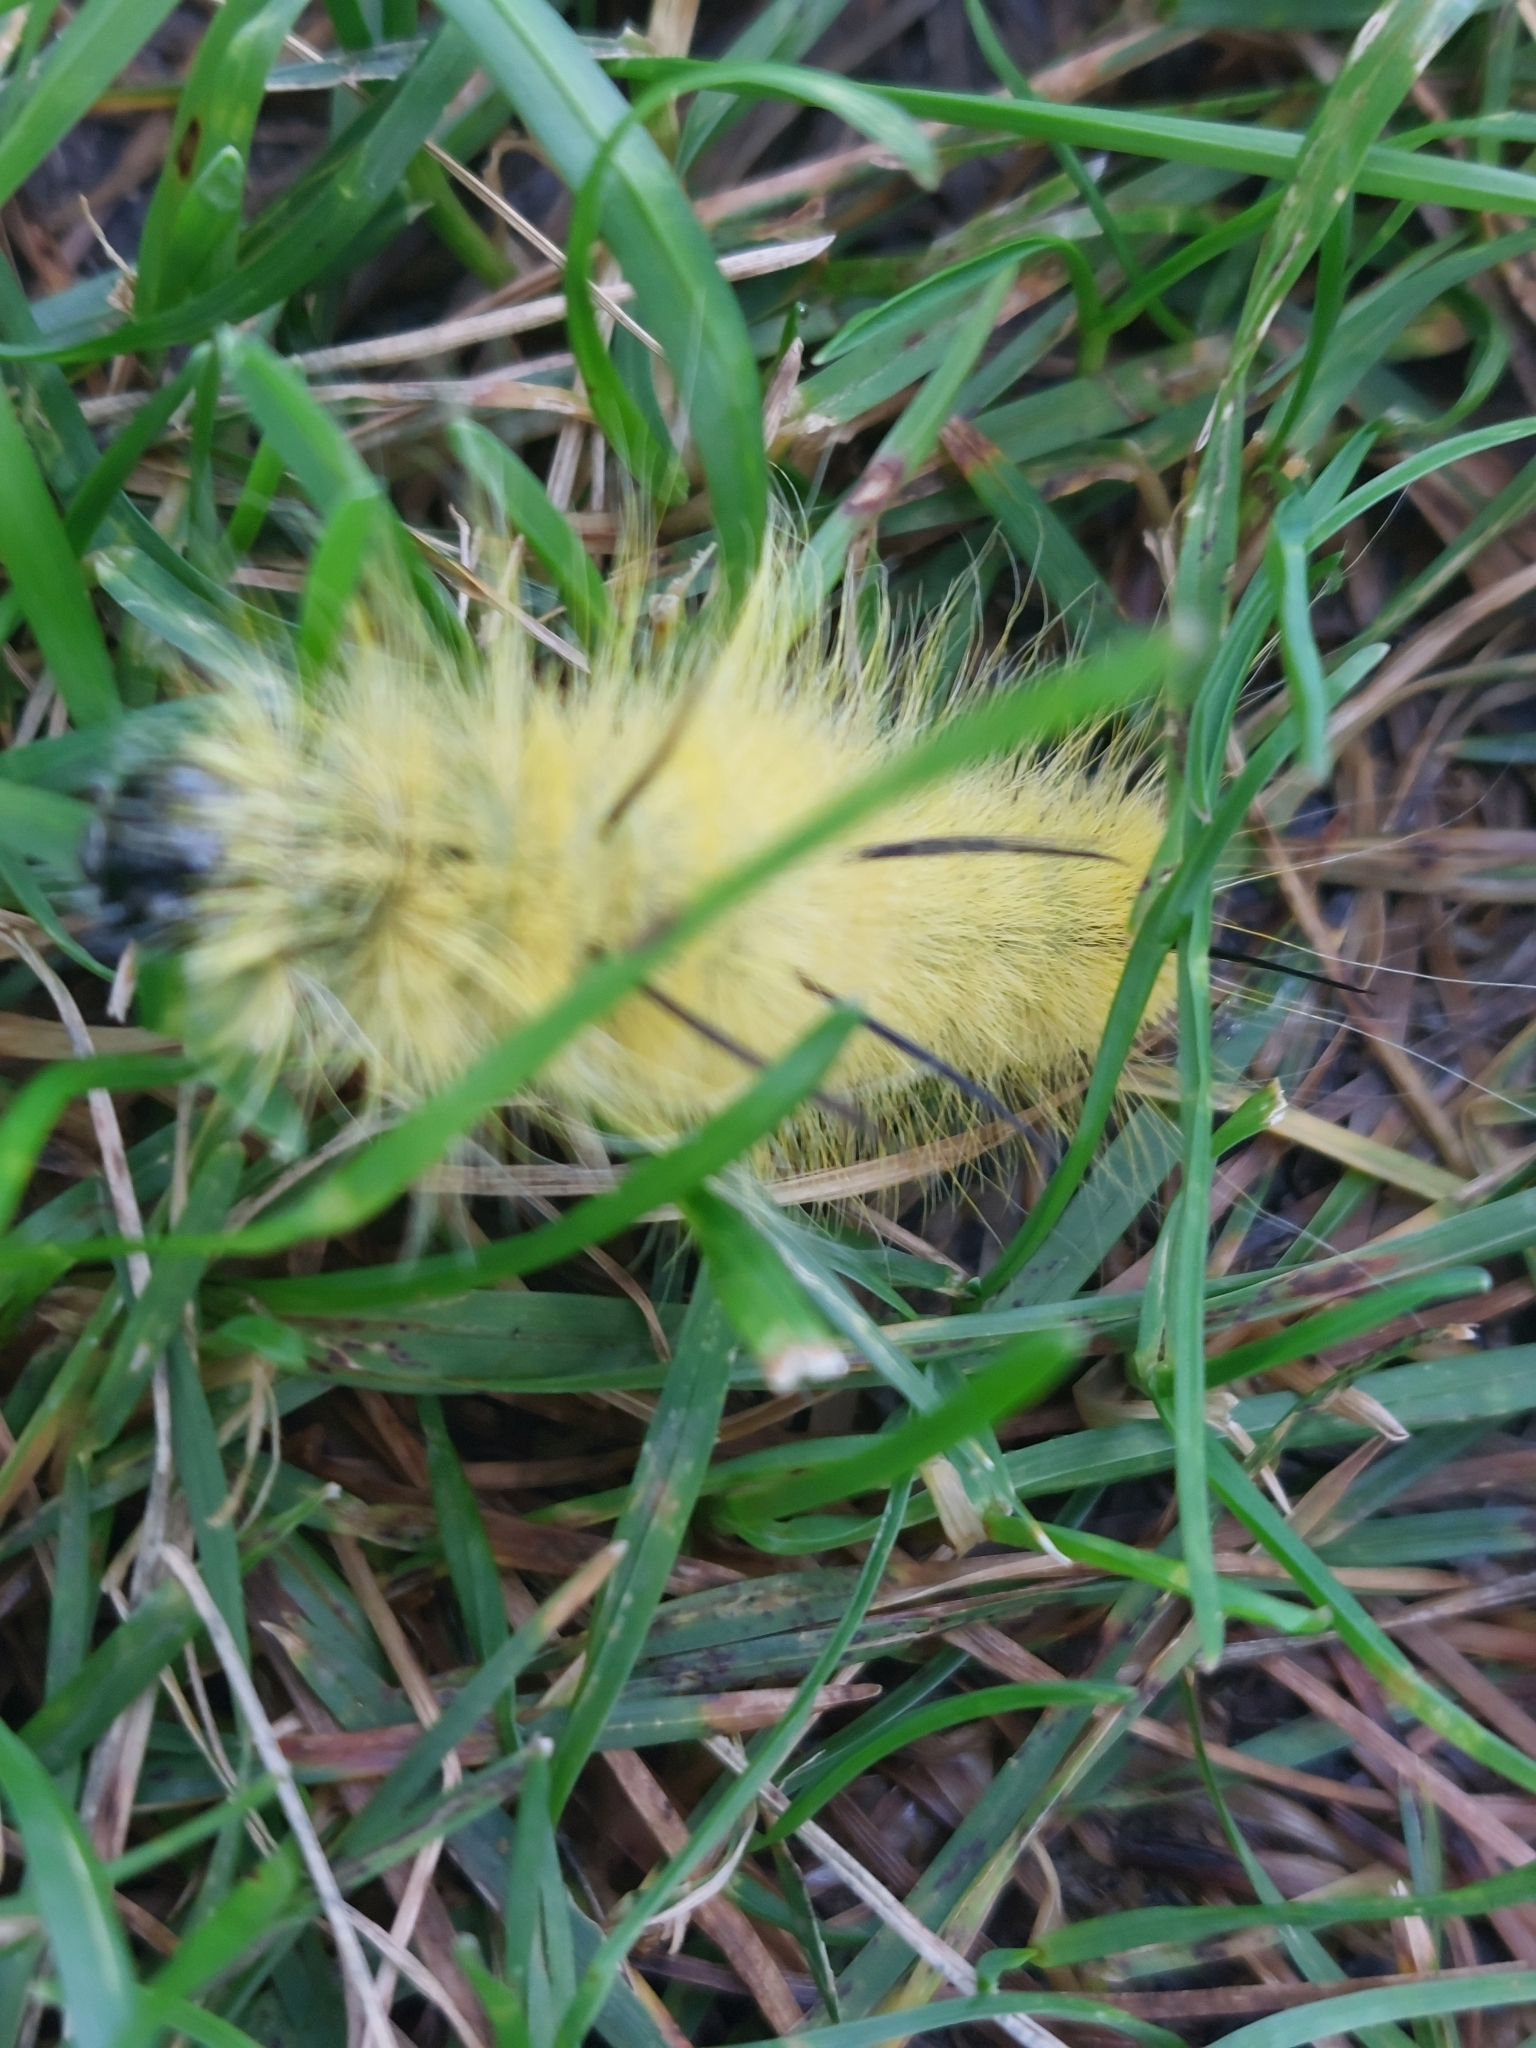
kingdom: Animalia
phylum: Arthropoda
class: Insecta
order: Lepidoptera
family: Noctuidae
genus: Acronicta
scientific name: Acronicta americana
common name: American dagger
